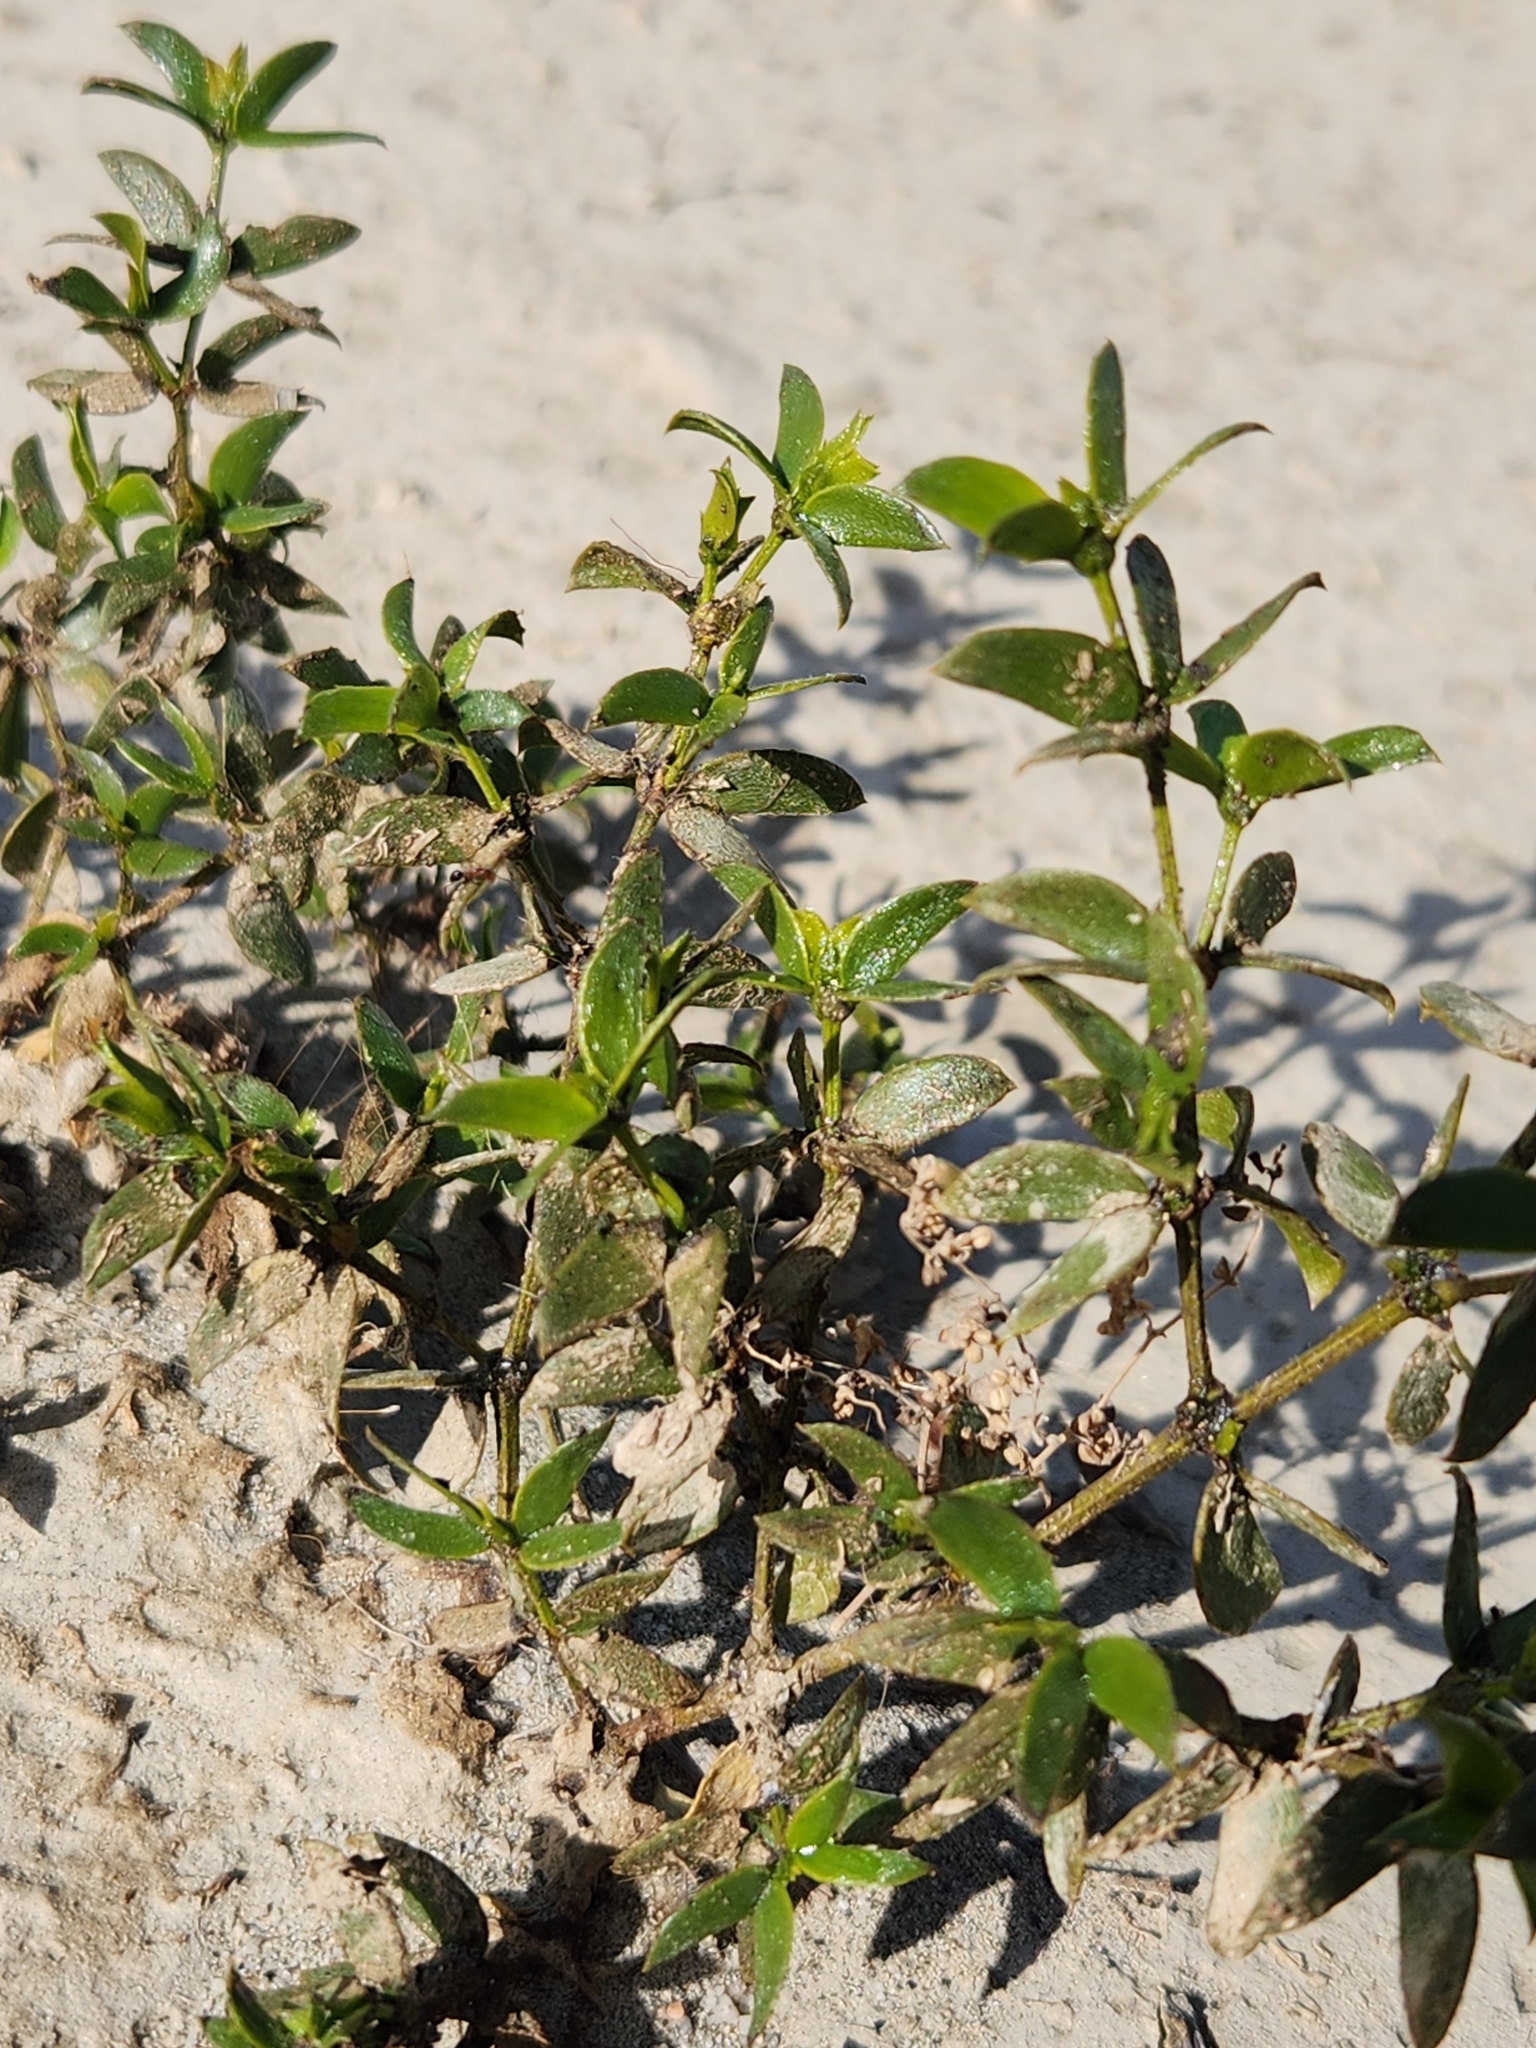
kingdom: Plantae
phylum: Tracheophyta
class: Magnoliopsida
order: Zygophyllales
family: Zygophyllaceae
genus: Larrea
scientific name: Larrea tridentata
